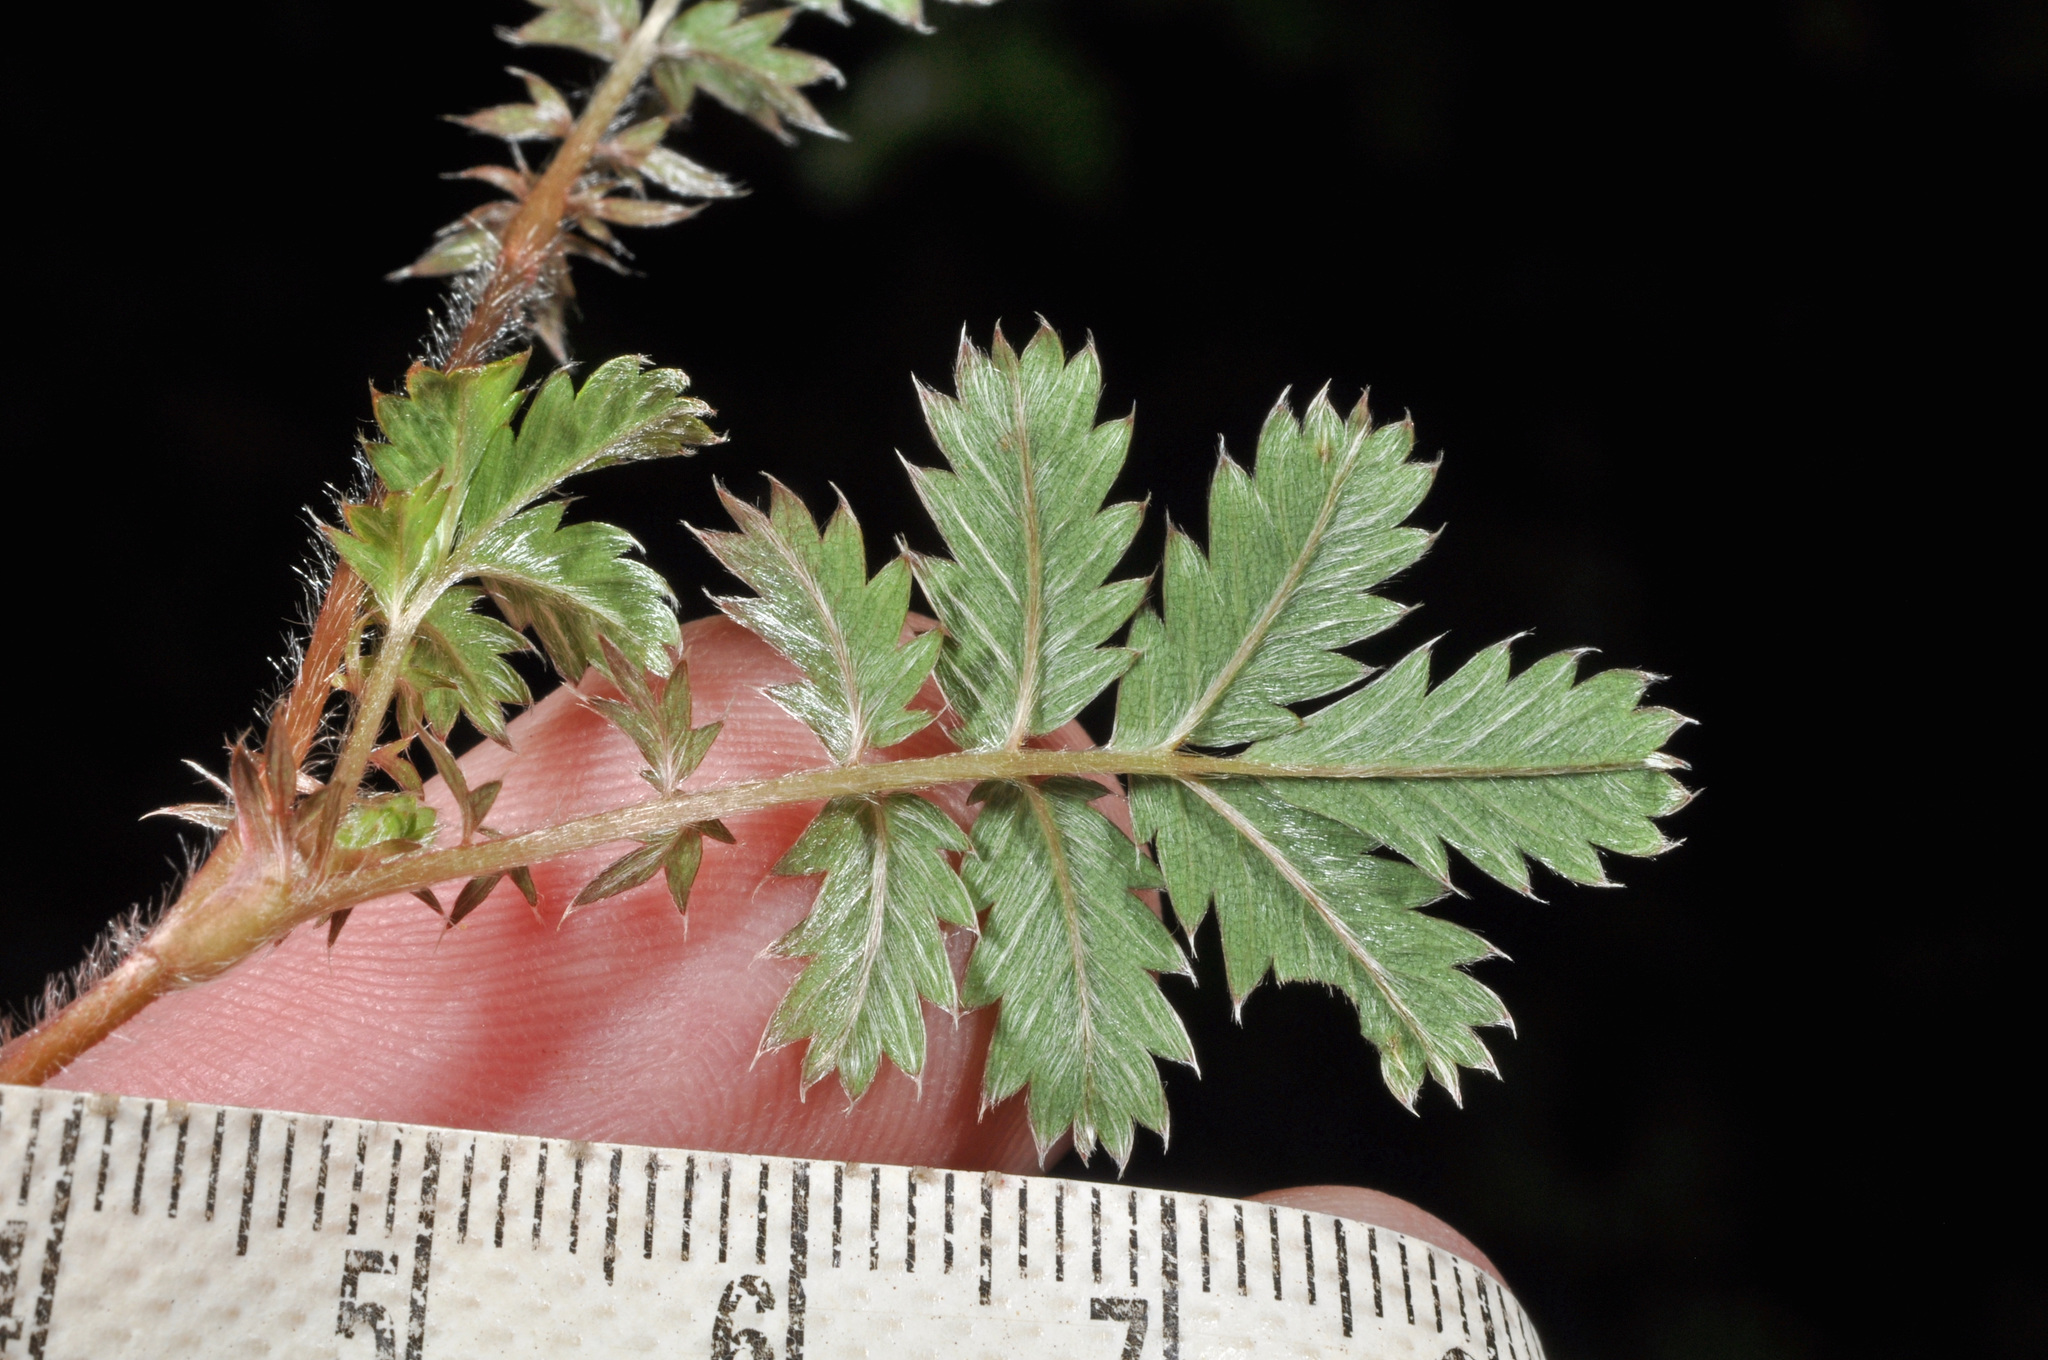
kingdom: Plantae
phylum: Tracheophyta
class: Magnoliopsida
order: Rosales
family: Rosaceae
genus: Acaena
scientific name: Acaena anserinifolia
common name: Bronze pirri-pirri-bur
